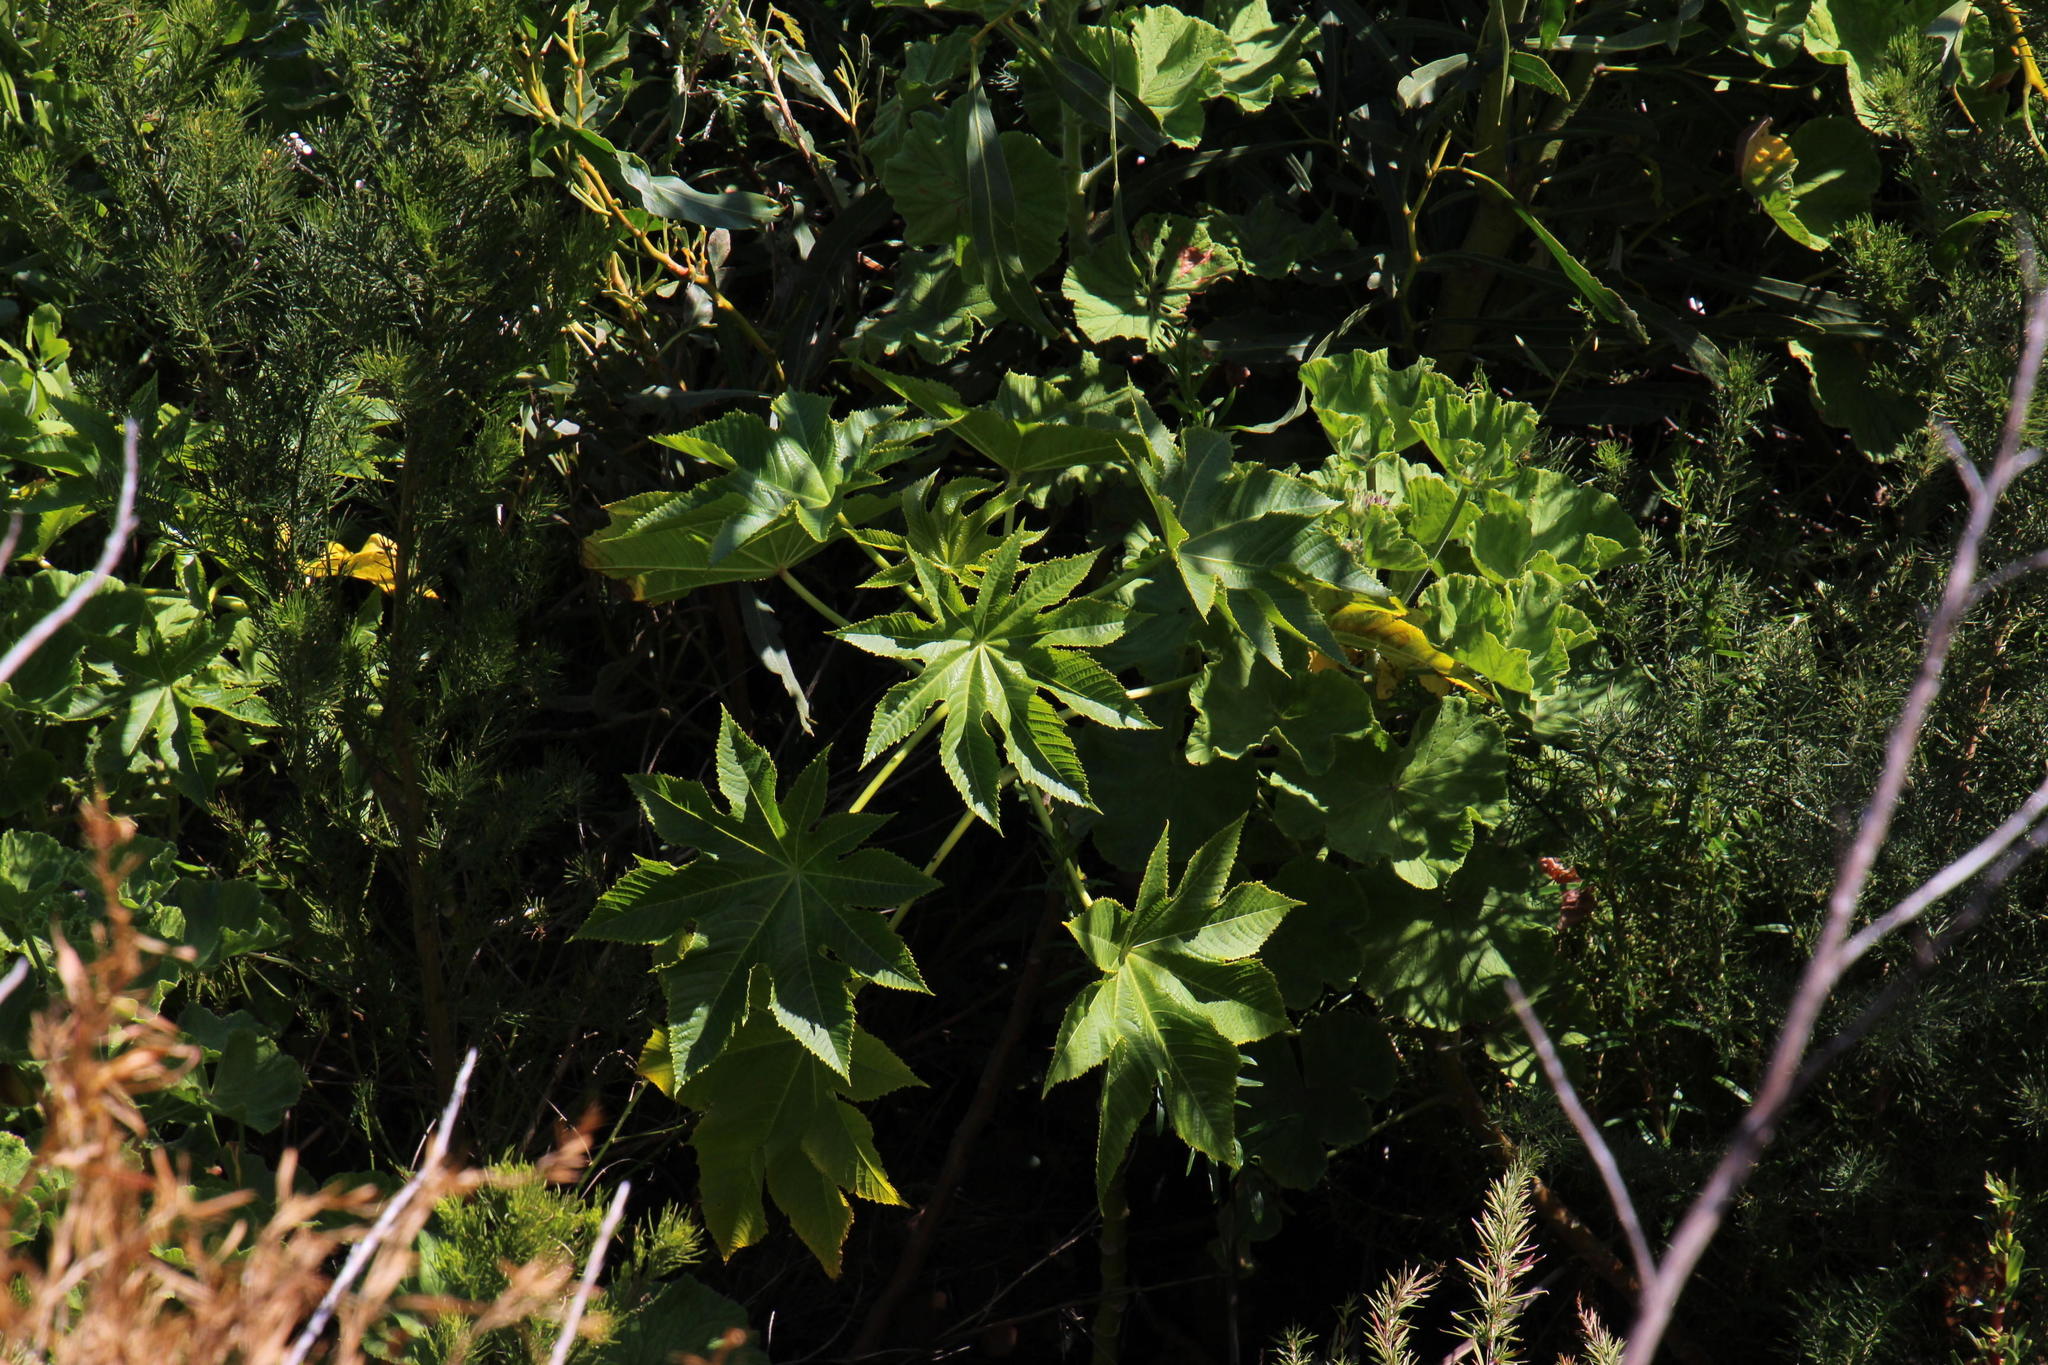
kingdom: Plantae
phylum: Tracheophyta
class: Magnoliopsida
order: Malpighiales
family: Euphorbiaceae
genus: Ricinus
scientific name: Ricinus communis
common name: Castor-oil-plant
